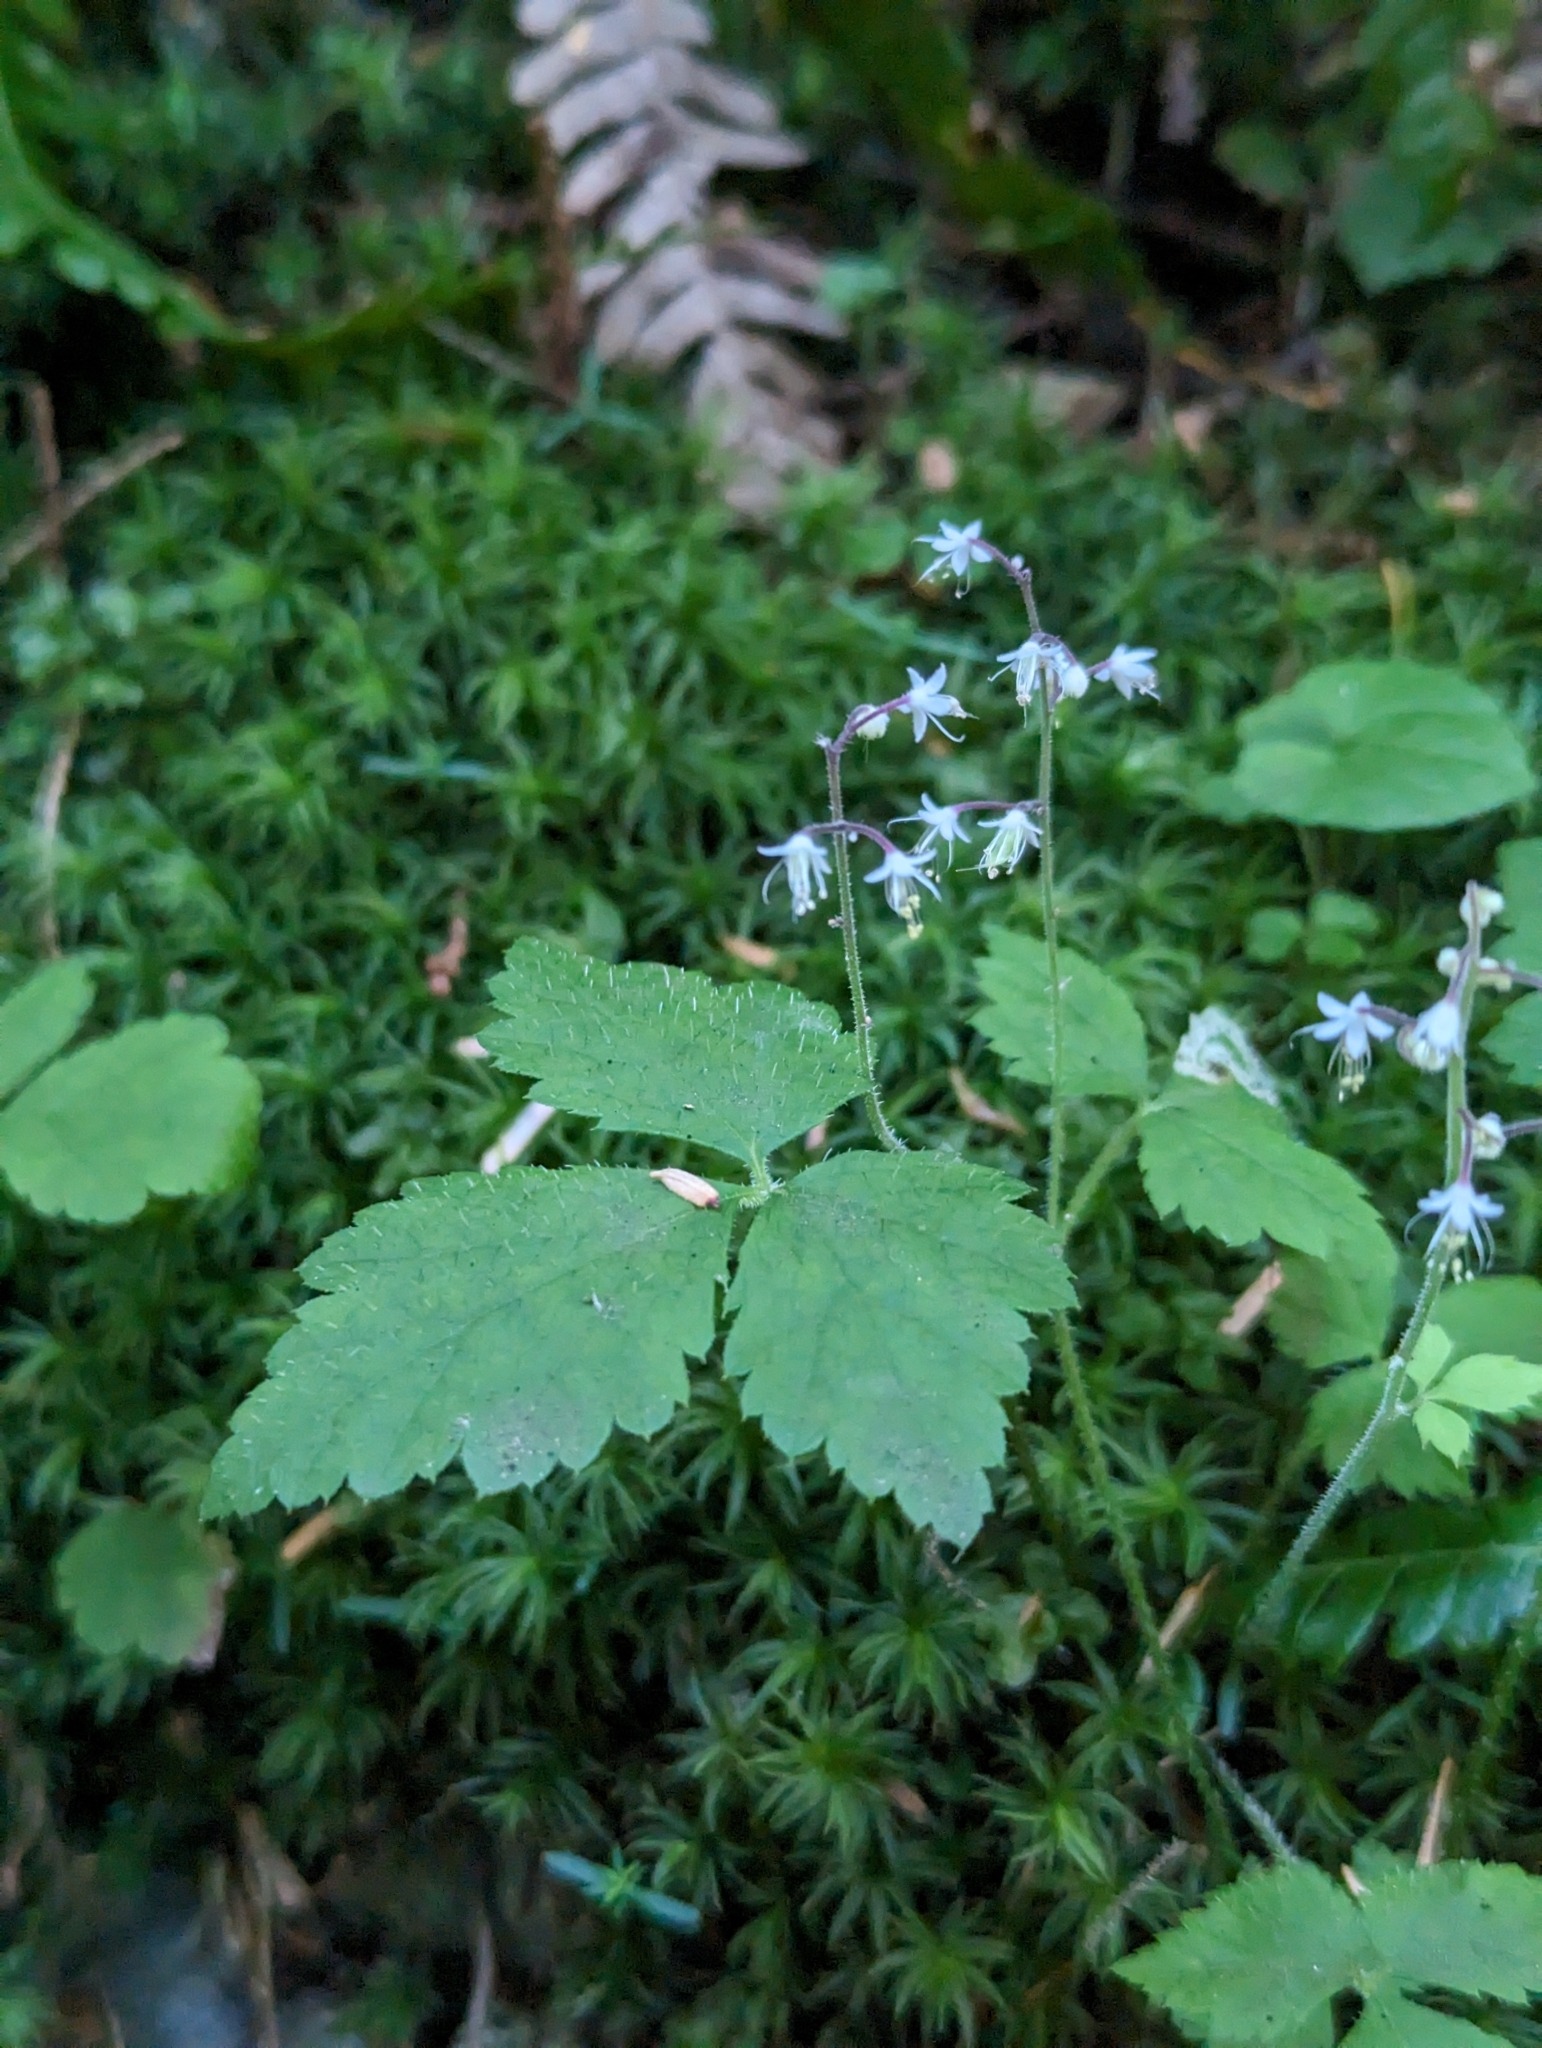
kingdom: Plantae
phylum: Tracheophyta
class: Magnoliopsida
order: Saxifragales
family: Saxifragaceae
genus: Tiarella
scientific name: Tiarella trifoliata
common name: Sugar-scoop
